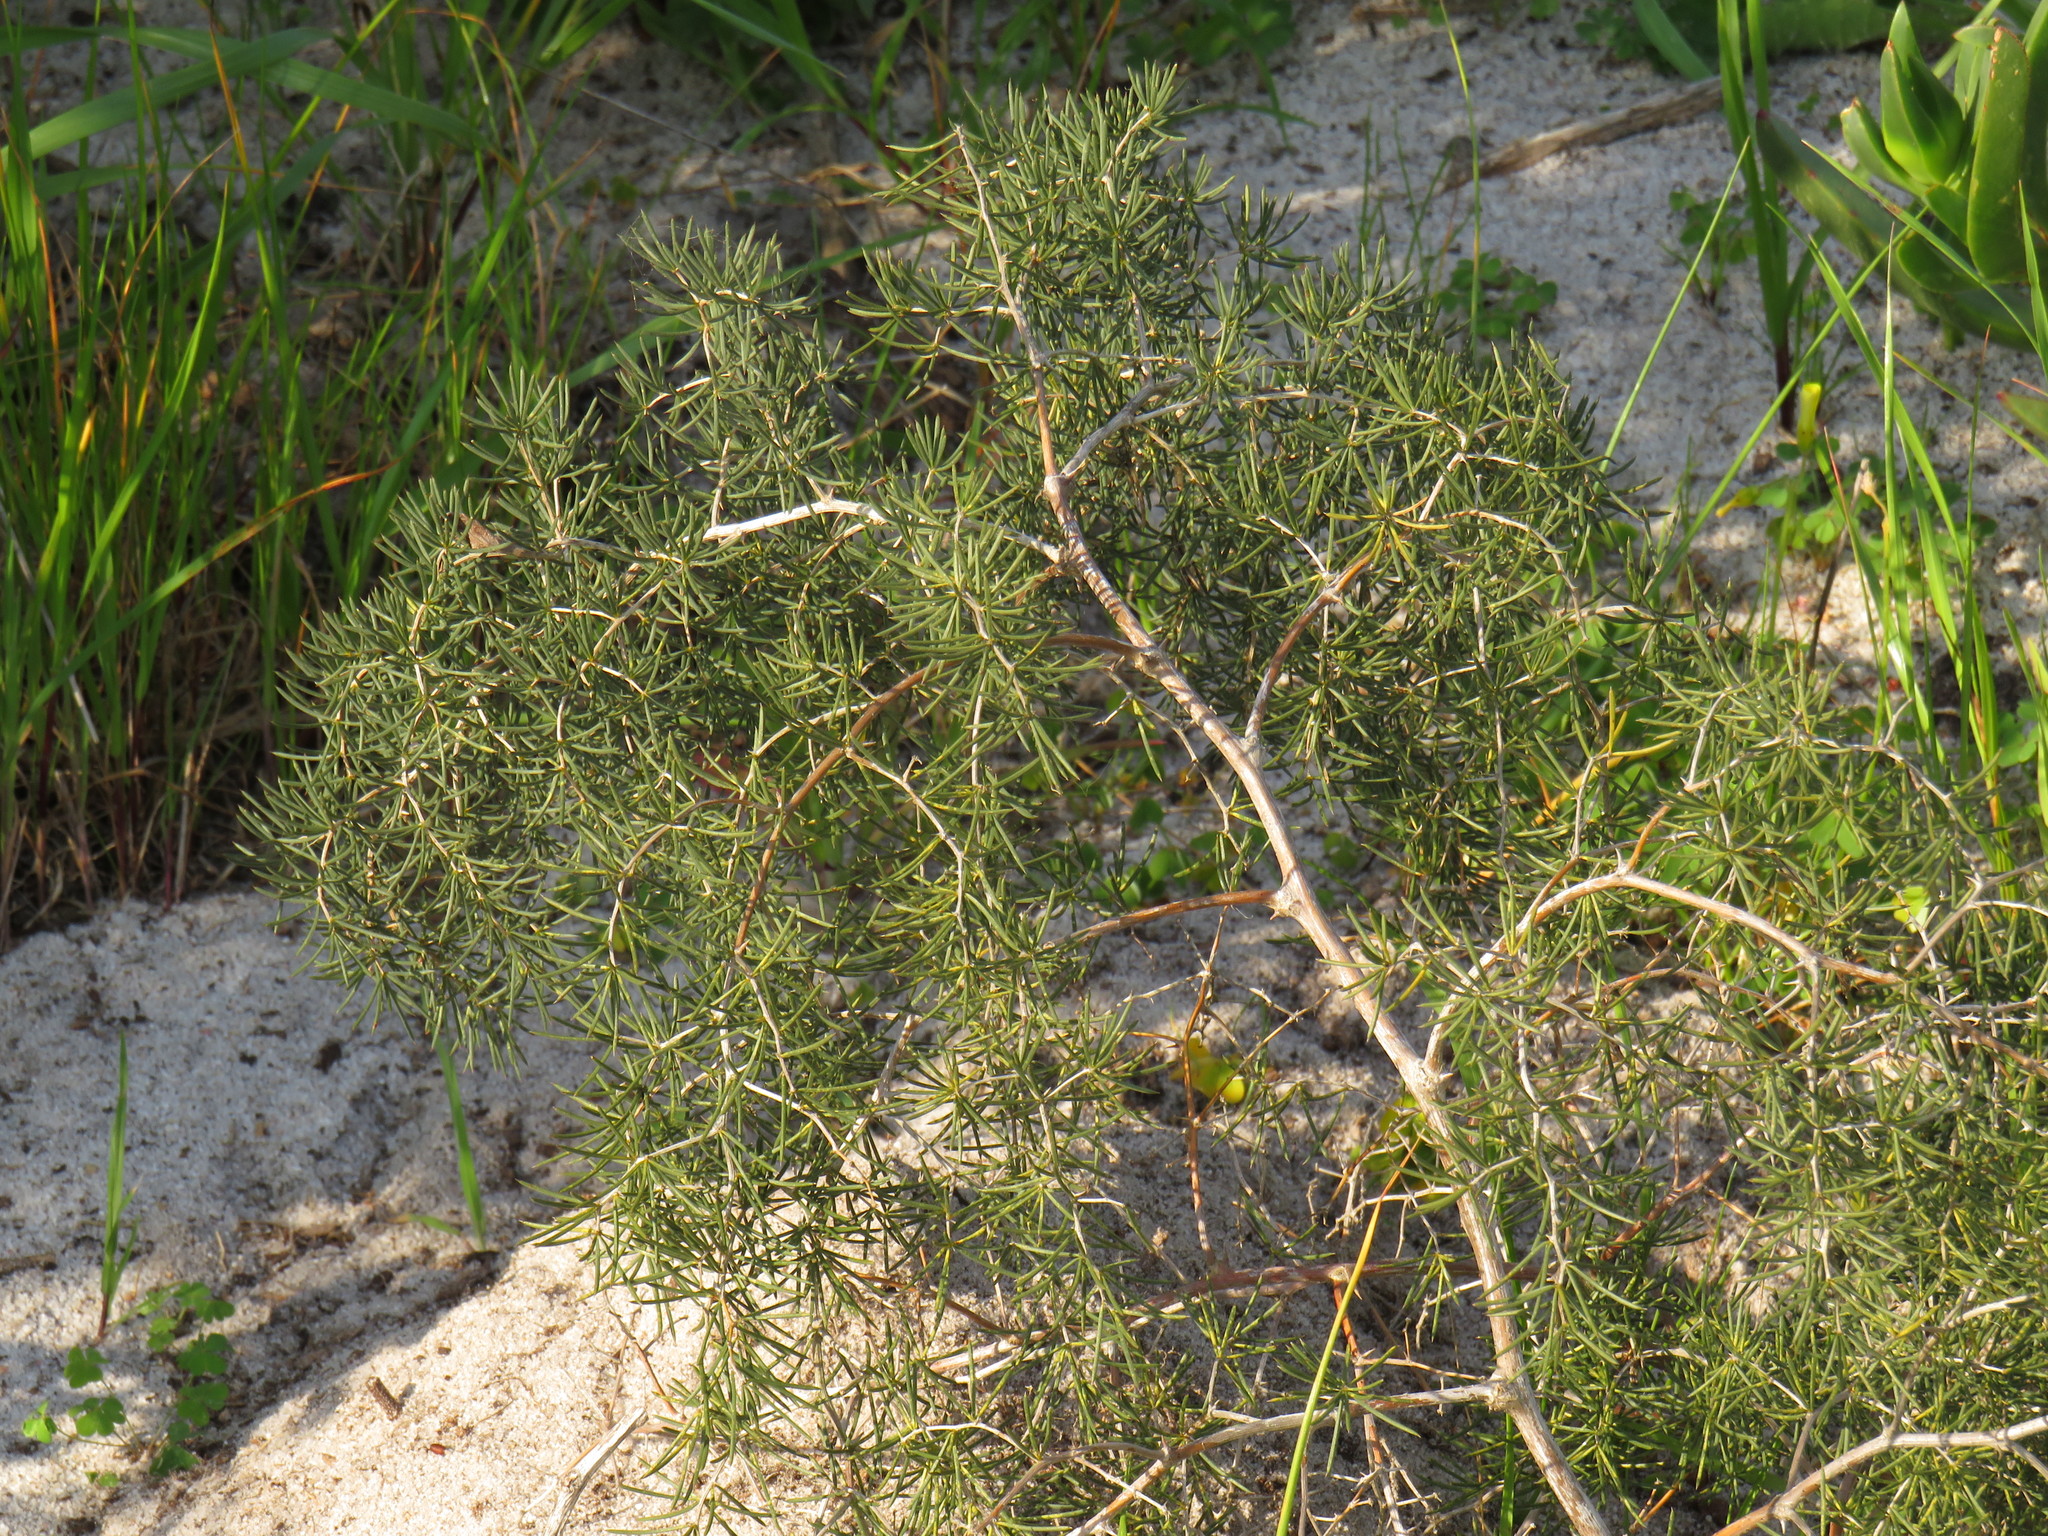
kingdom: Plantae
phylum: Tracheophyta
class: Liliopsida
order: Asparagales
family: Asparagaceae
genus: Asparagus
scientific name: Asparagus lignosus
